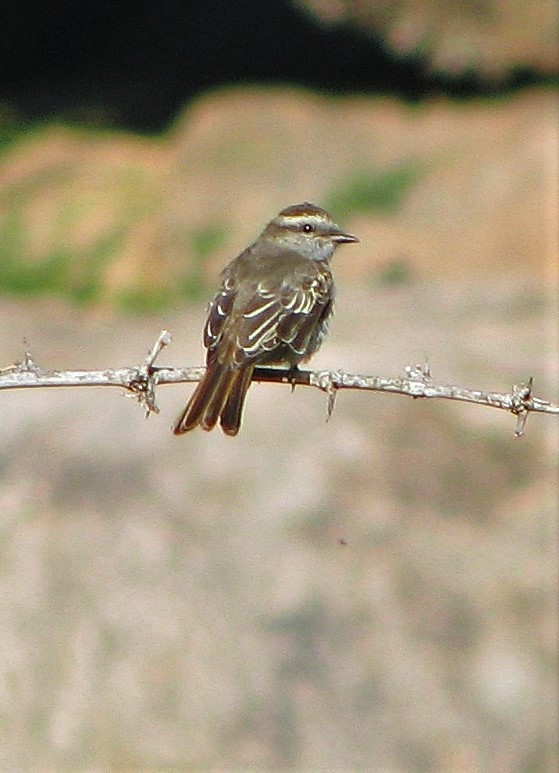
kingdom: Animalia
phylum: Chordata
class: Aves
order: Passeriformes
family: Tyrannidae
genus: Empidonomus
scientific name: Empidonomus aurantioatrocristatus
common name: Crowned slaty flycatcher
